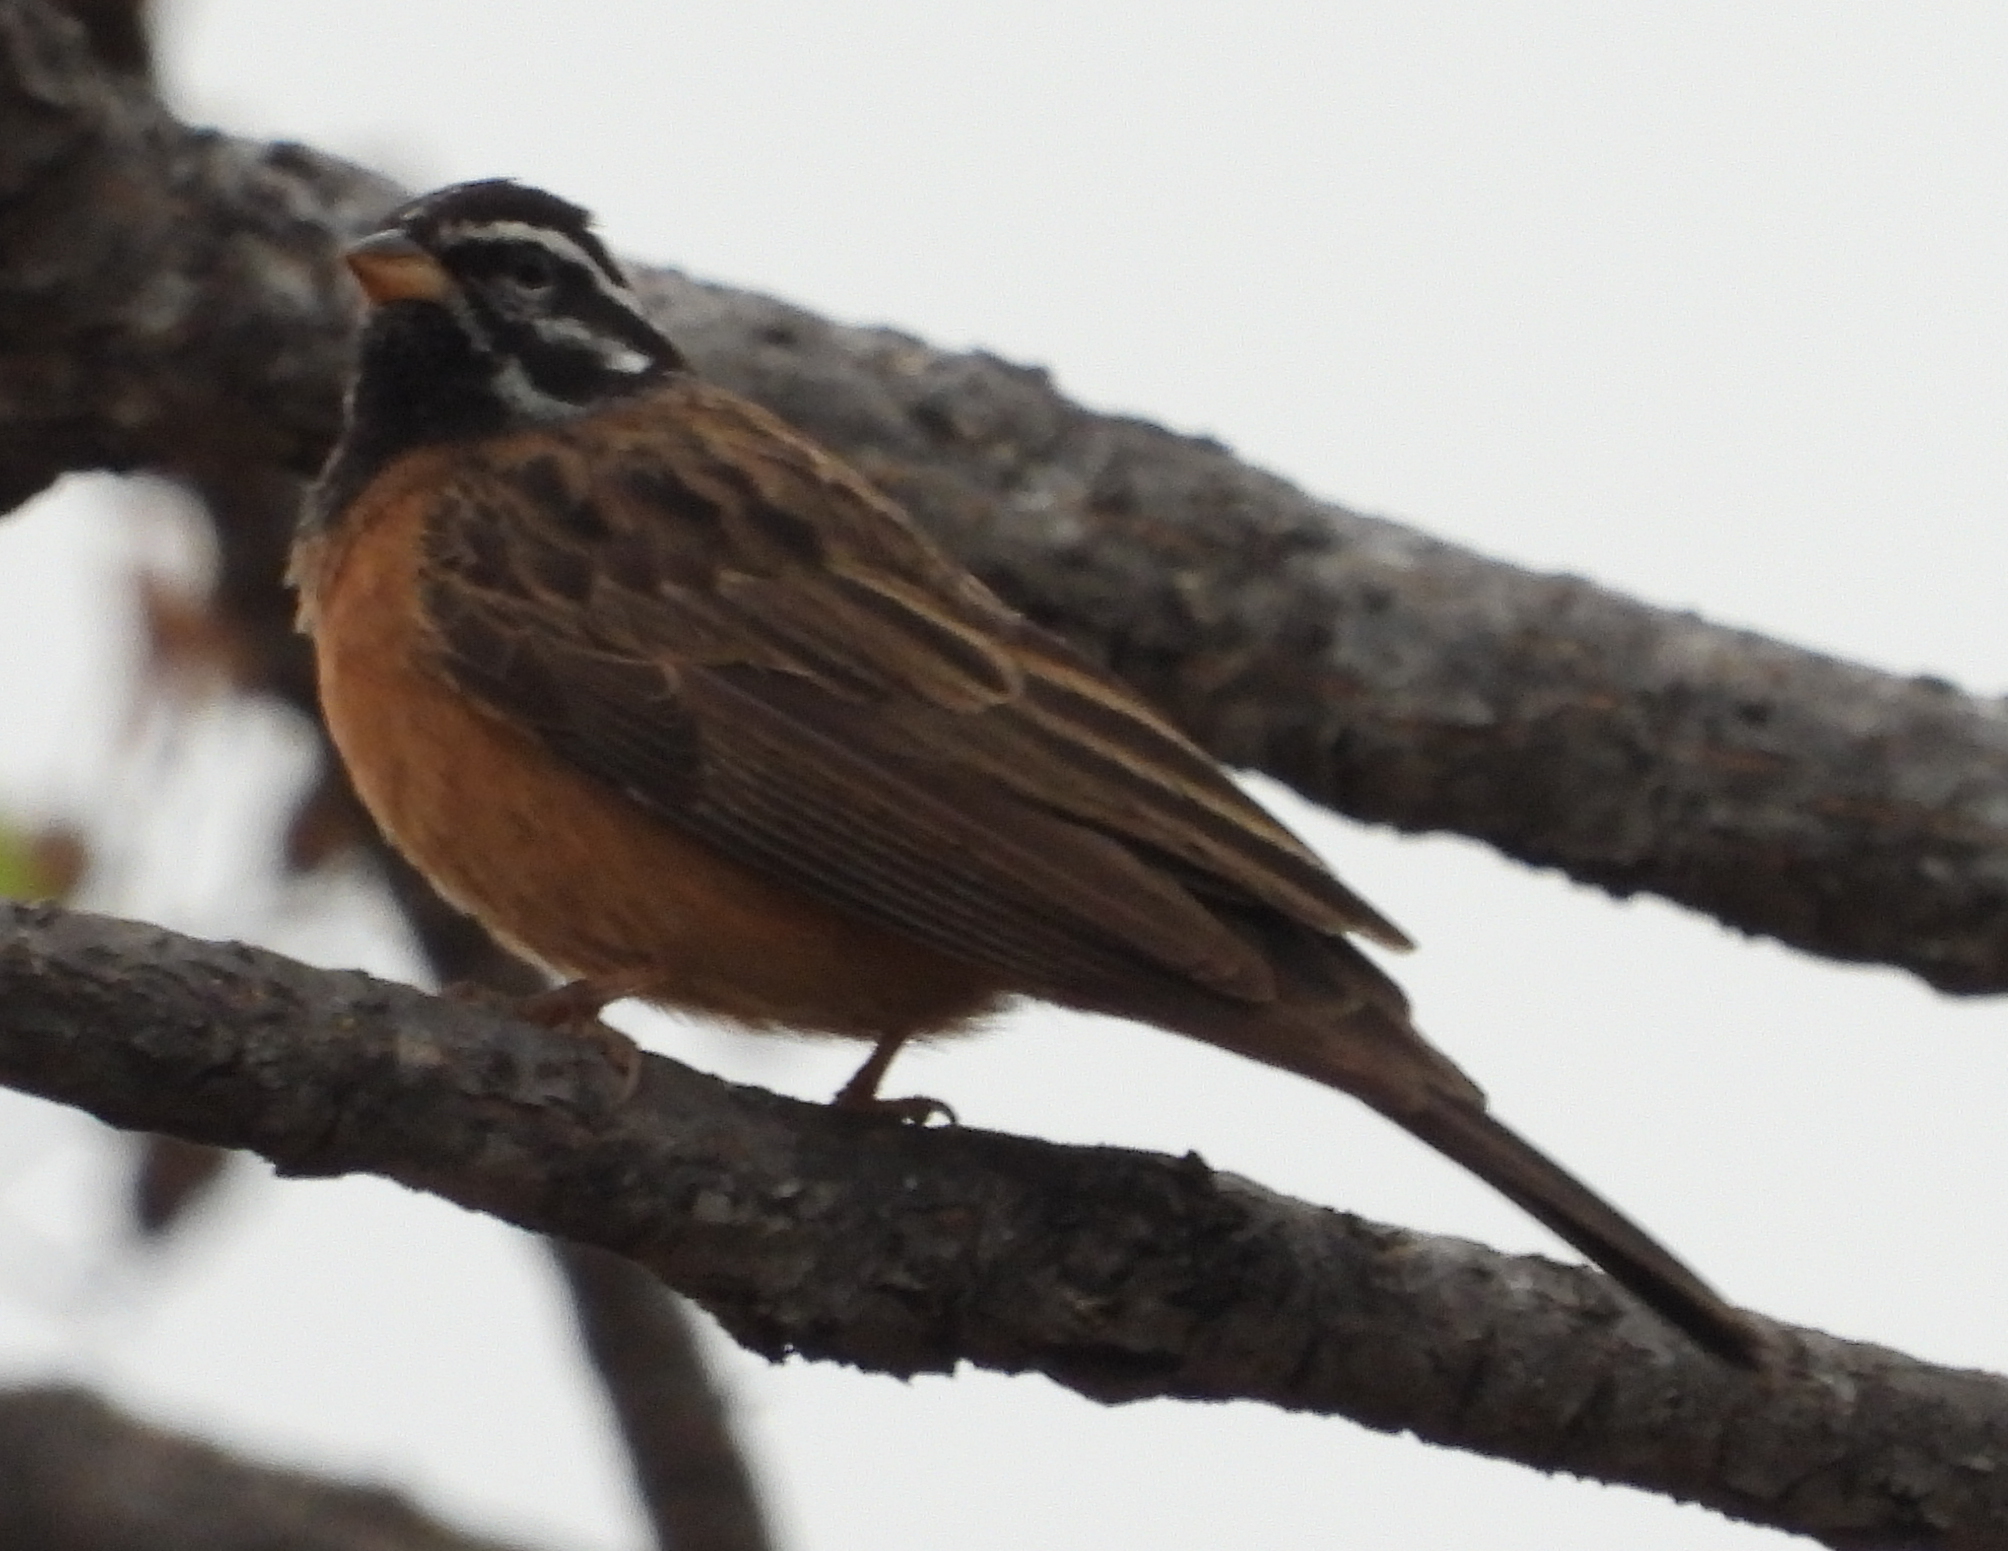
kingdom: Animalia
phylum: Chordata
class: Aves
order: Passeriformes
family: Emberizidae
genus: Emberiza
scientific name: Emberiza tahapisi
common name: Cinnamon-breasted bunting
